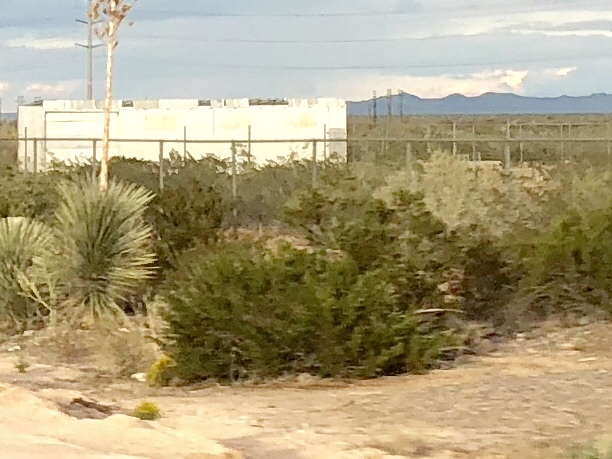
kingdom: Plantae
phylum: Tracheophyta
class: Magnoliopsida
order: Zygophyllales
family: Zygophyllaceae
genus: Larrea
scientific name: Larrea tridentata
